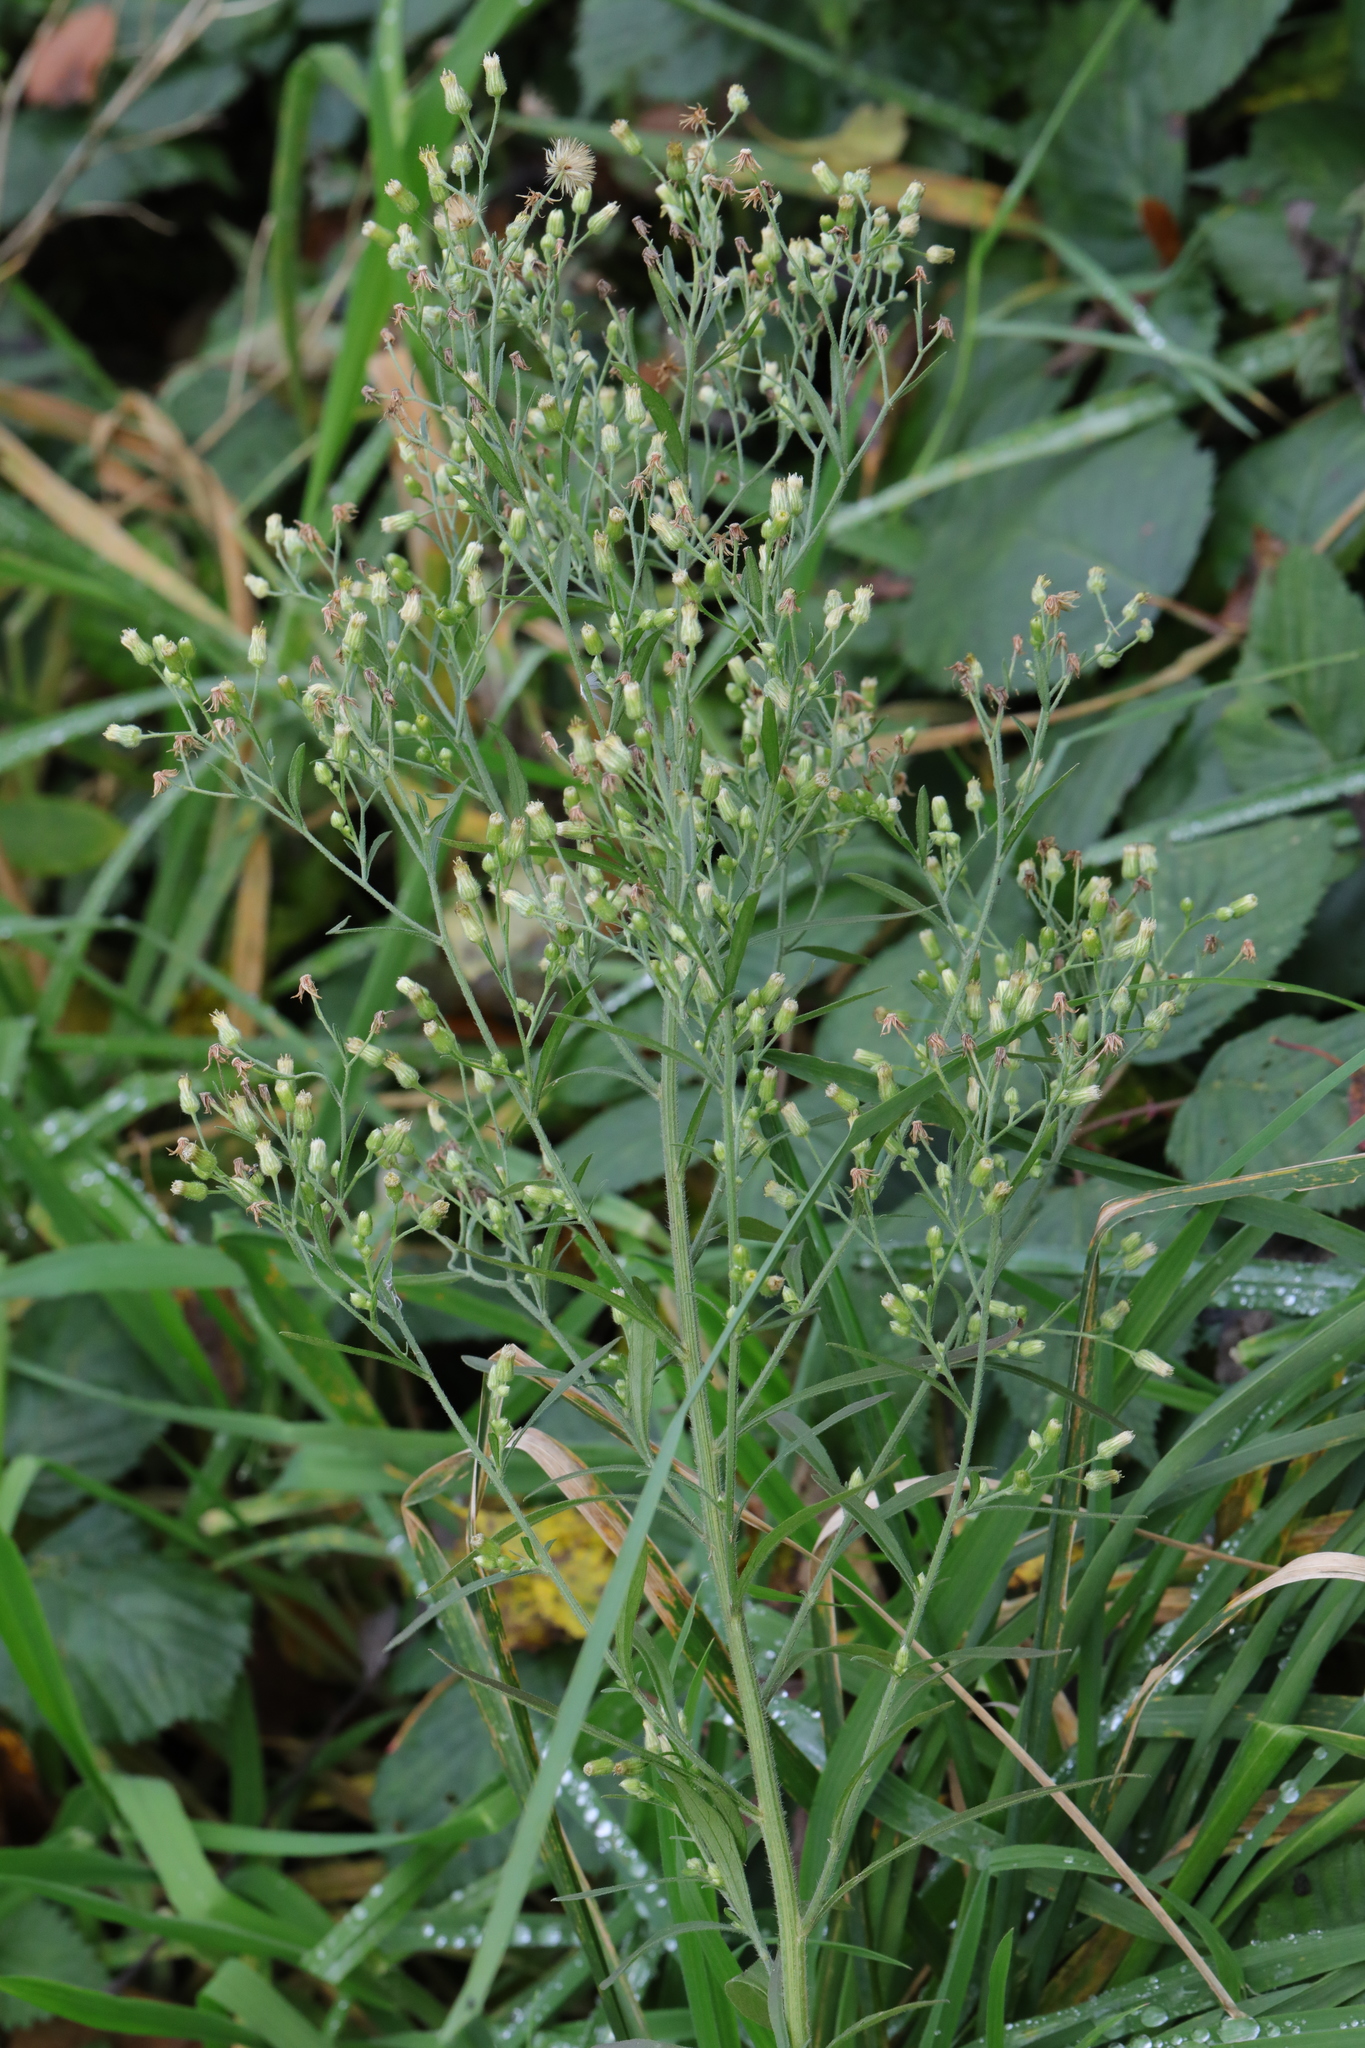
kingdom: Plantae
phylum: Tracheophyta
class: Magnoliopsida
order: Asterales
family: Asteraceae
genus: Erigeron
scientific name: Erigeron canadensis
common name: Canadian fleabane
